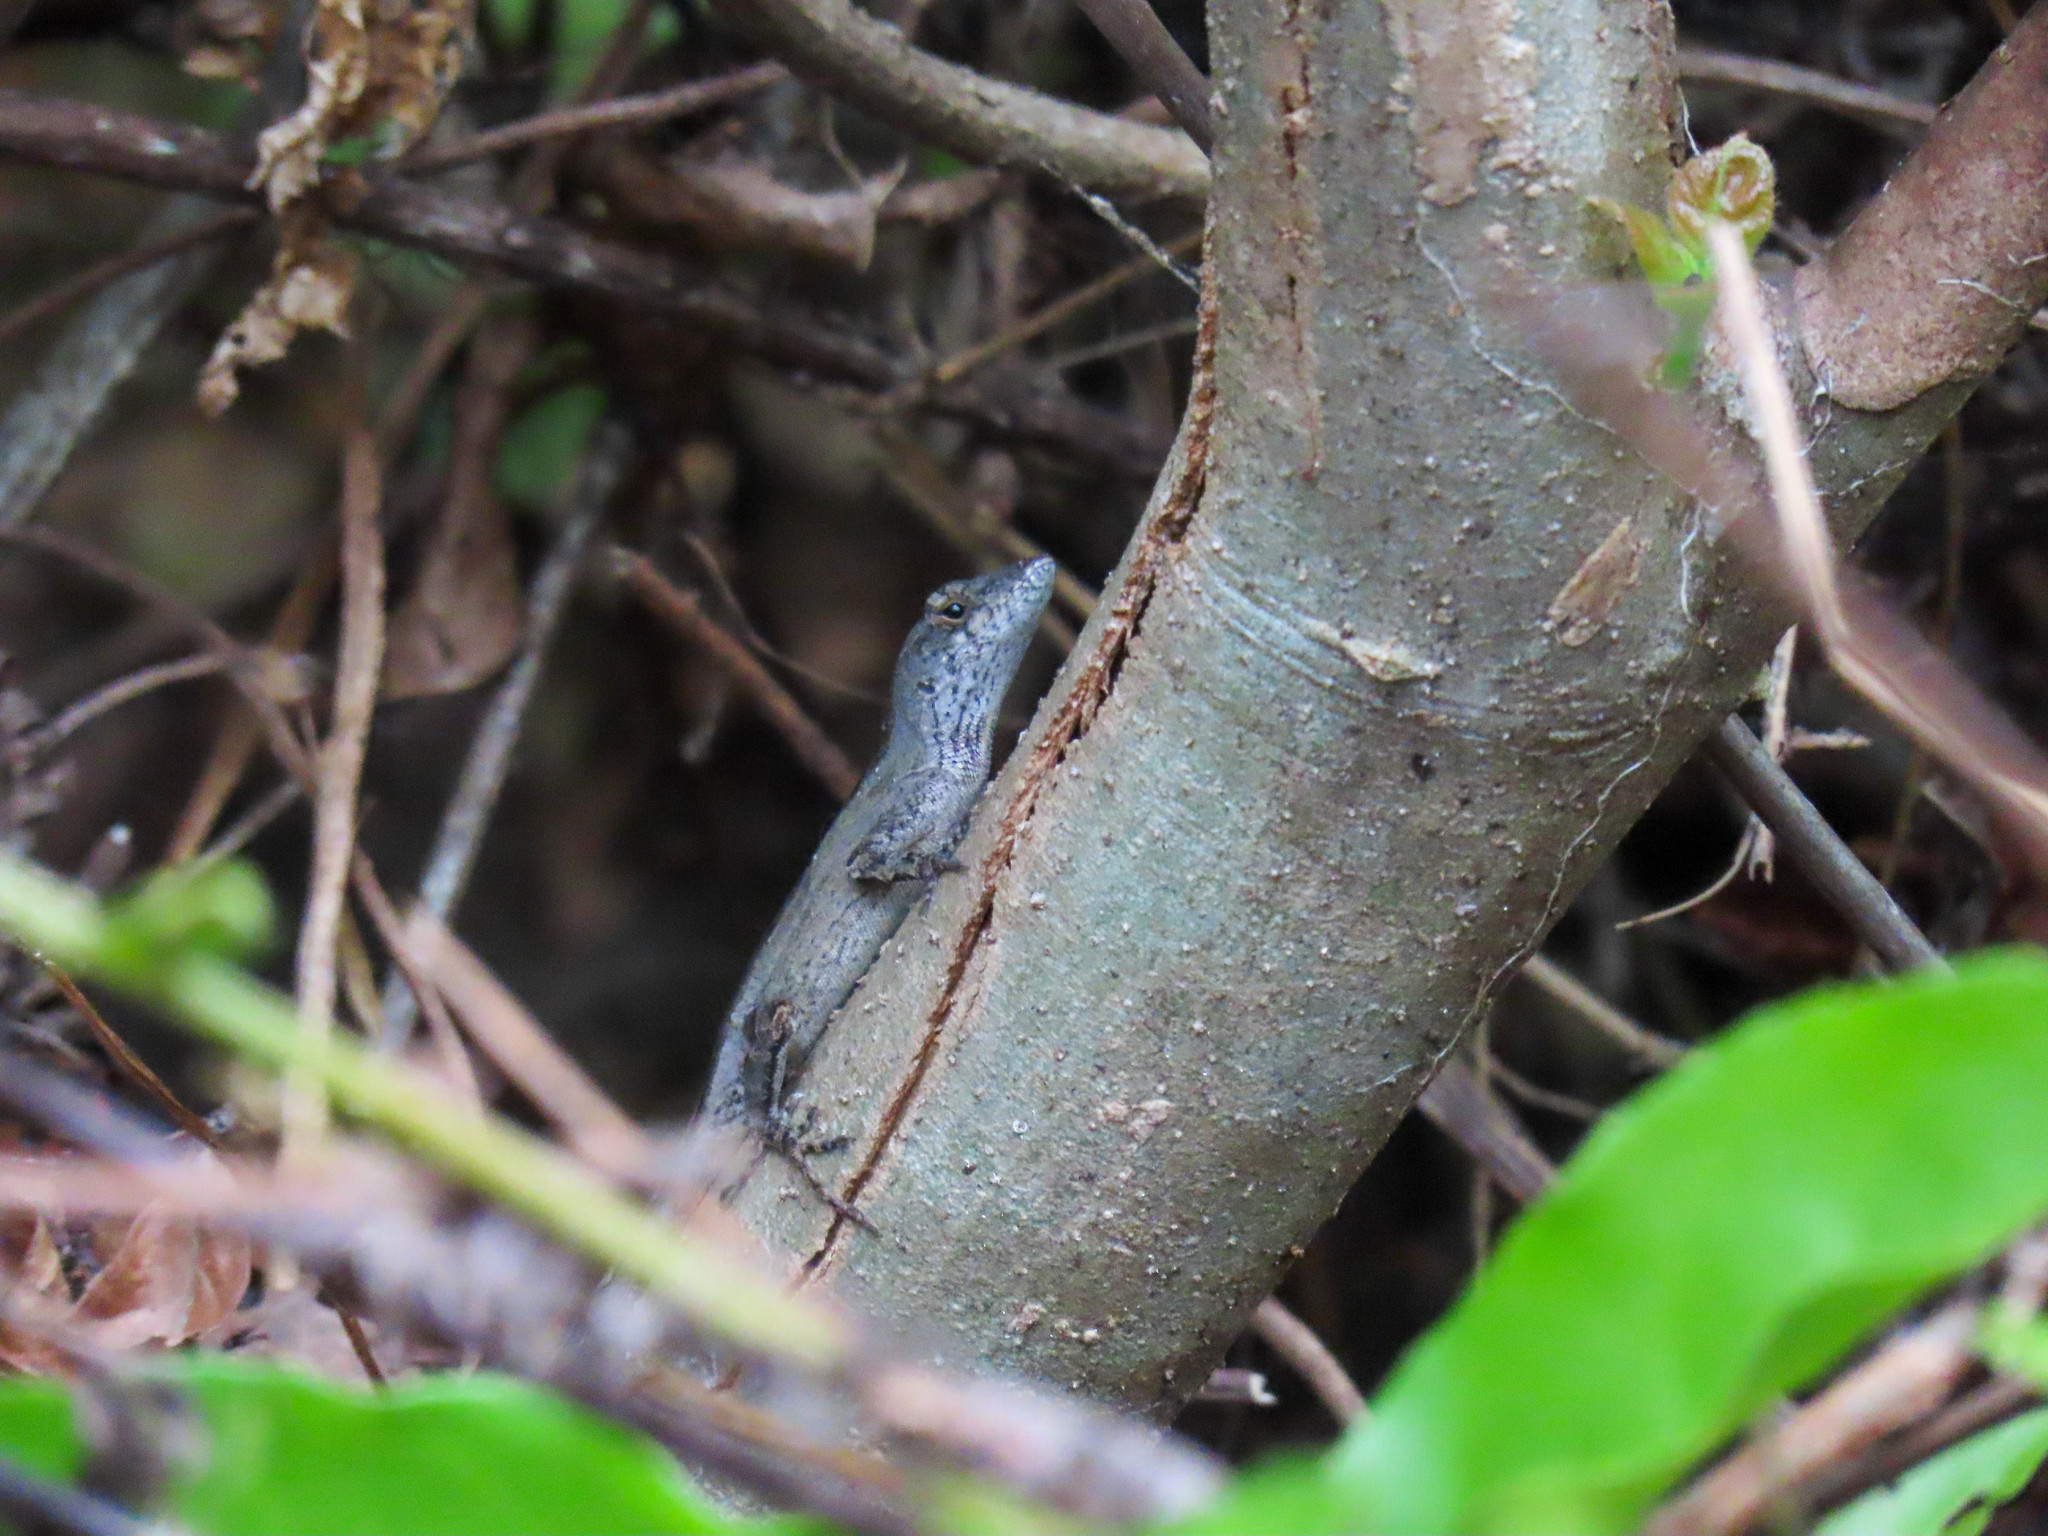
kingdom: Animalia
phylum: Chordata
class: Squamata
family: Dactyloidae
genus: Anolis
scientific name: Anolis sagrei
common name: Brown anole
